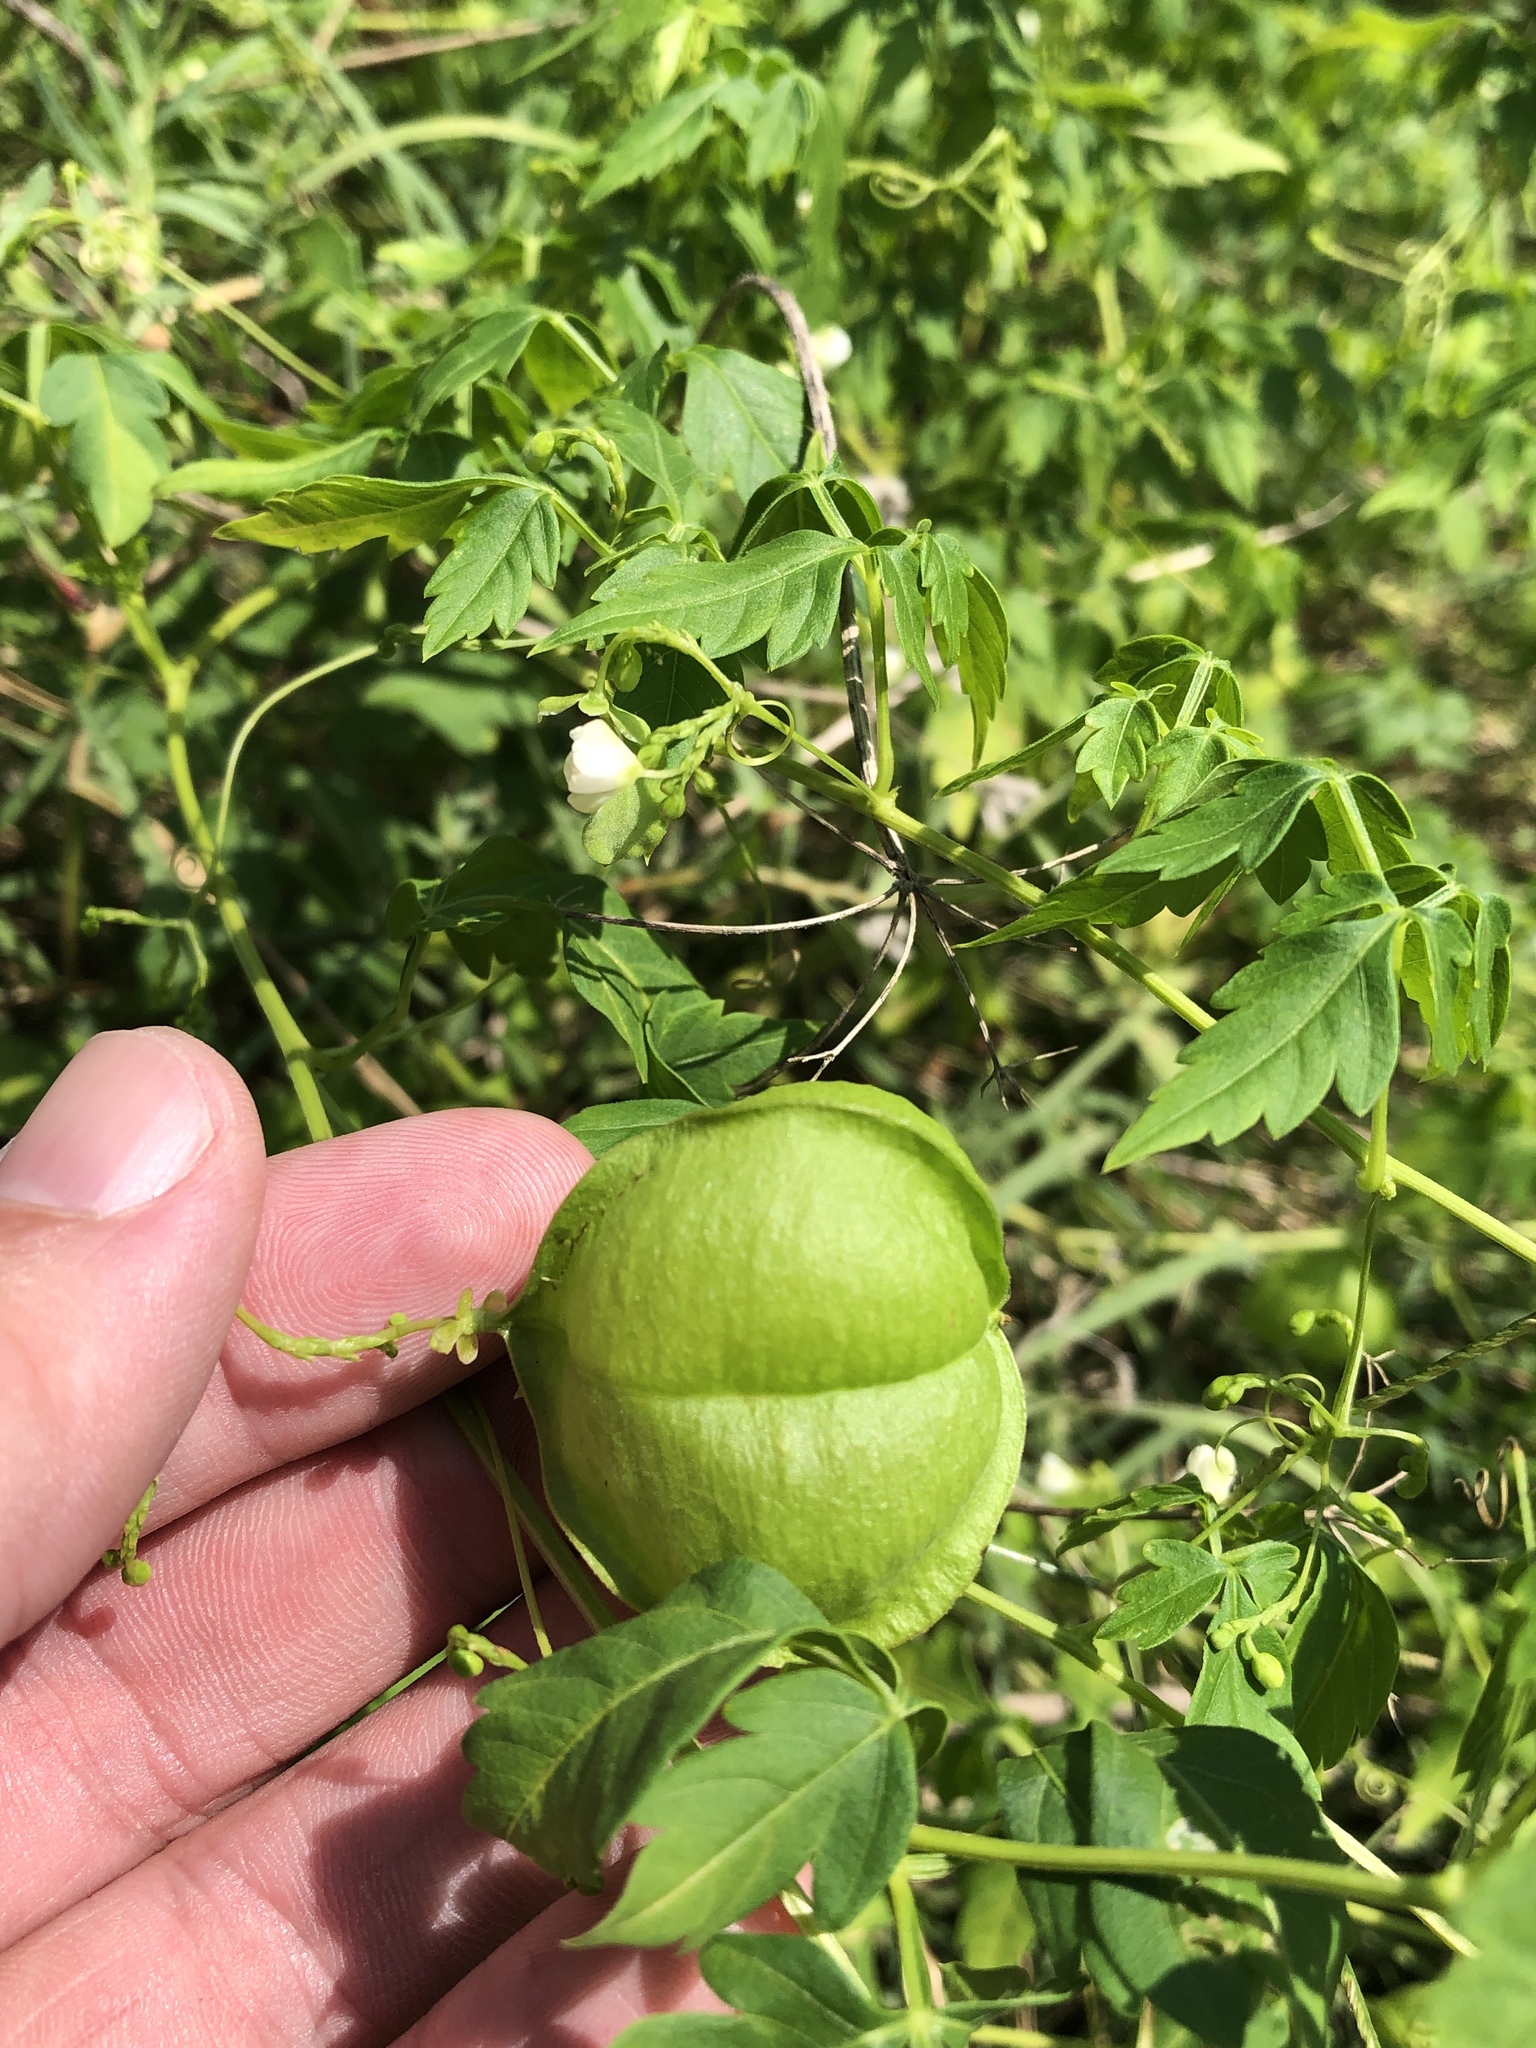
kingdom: Plantae
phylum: Tracheophyta
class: Magnoliopsida
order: Sapindales
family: Sapindaceae
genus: Cardiospermum
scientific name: Cardiospermum halicacabum
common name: Balloon vine
